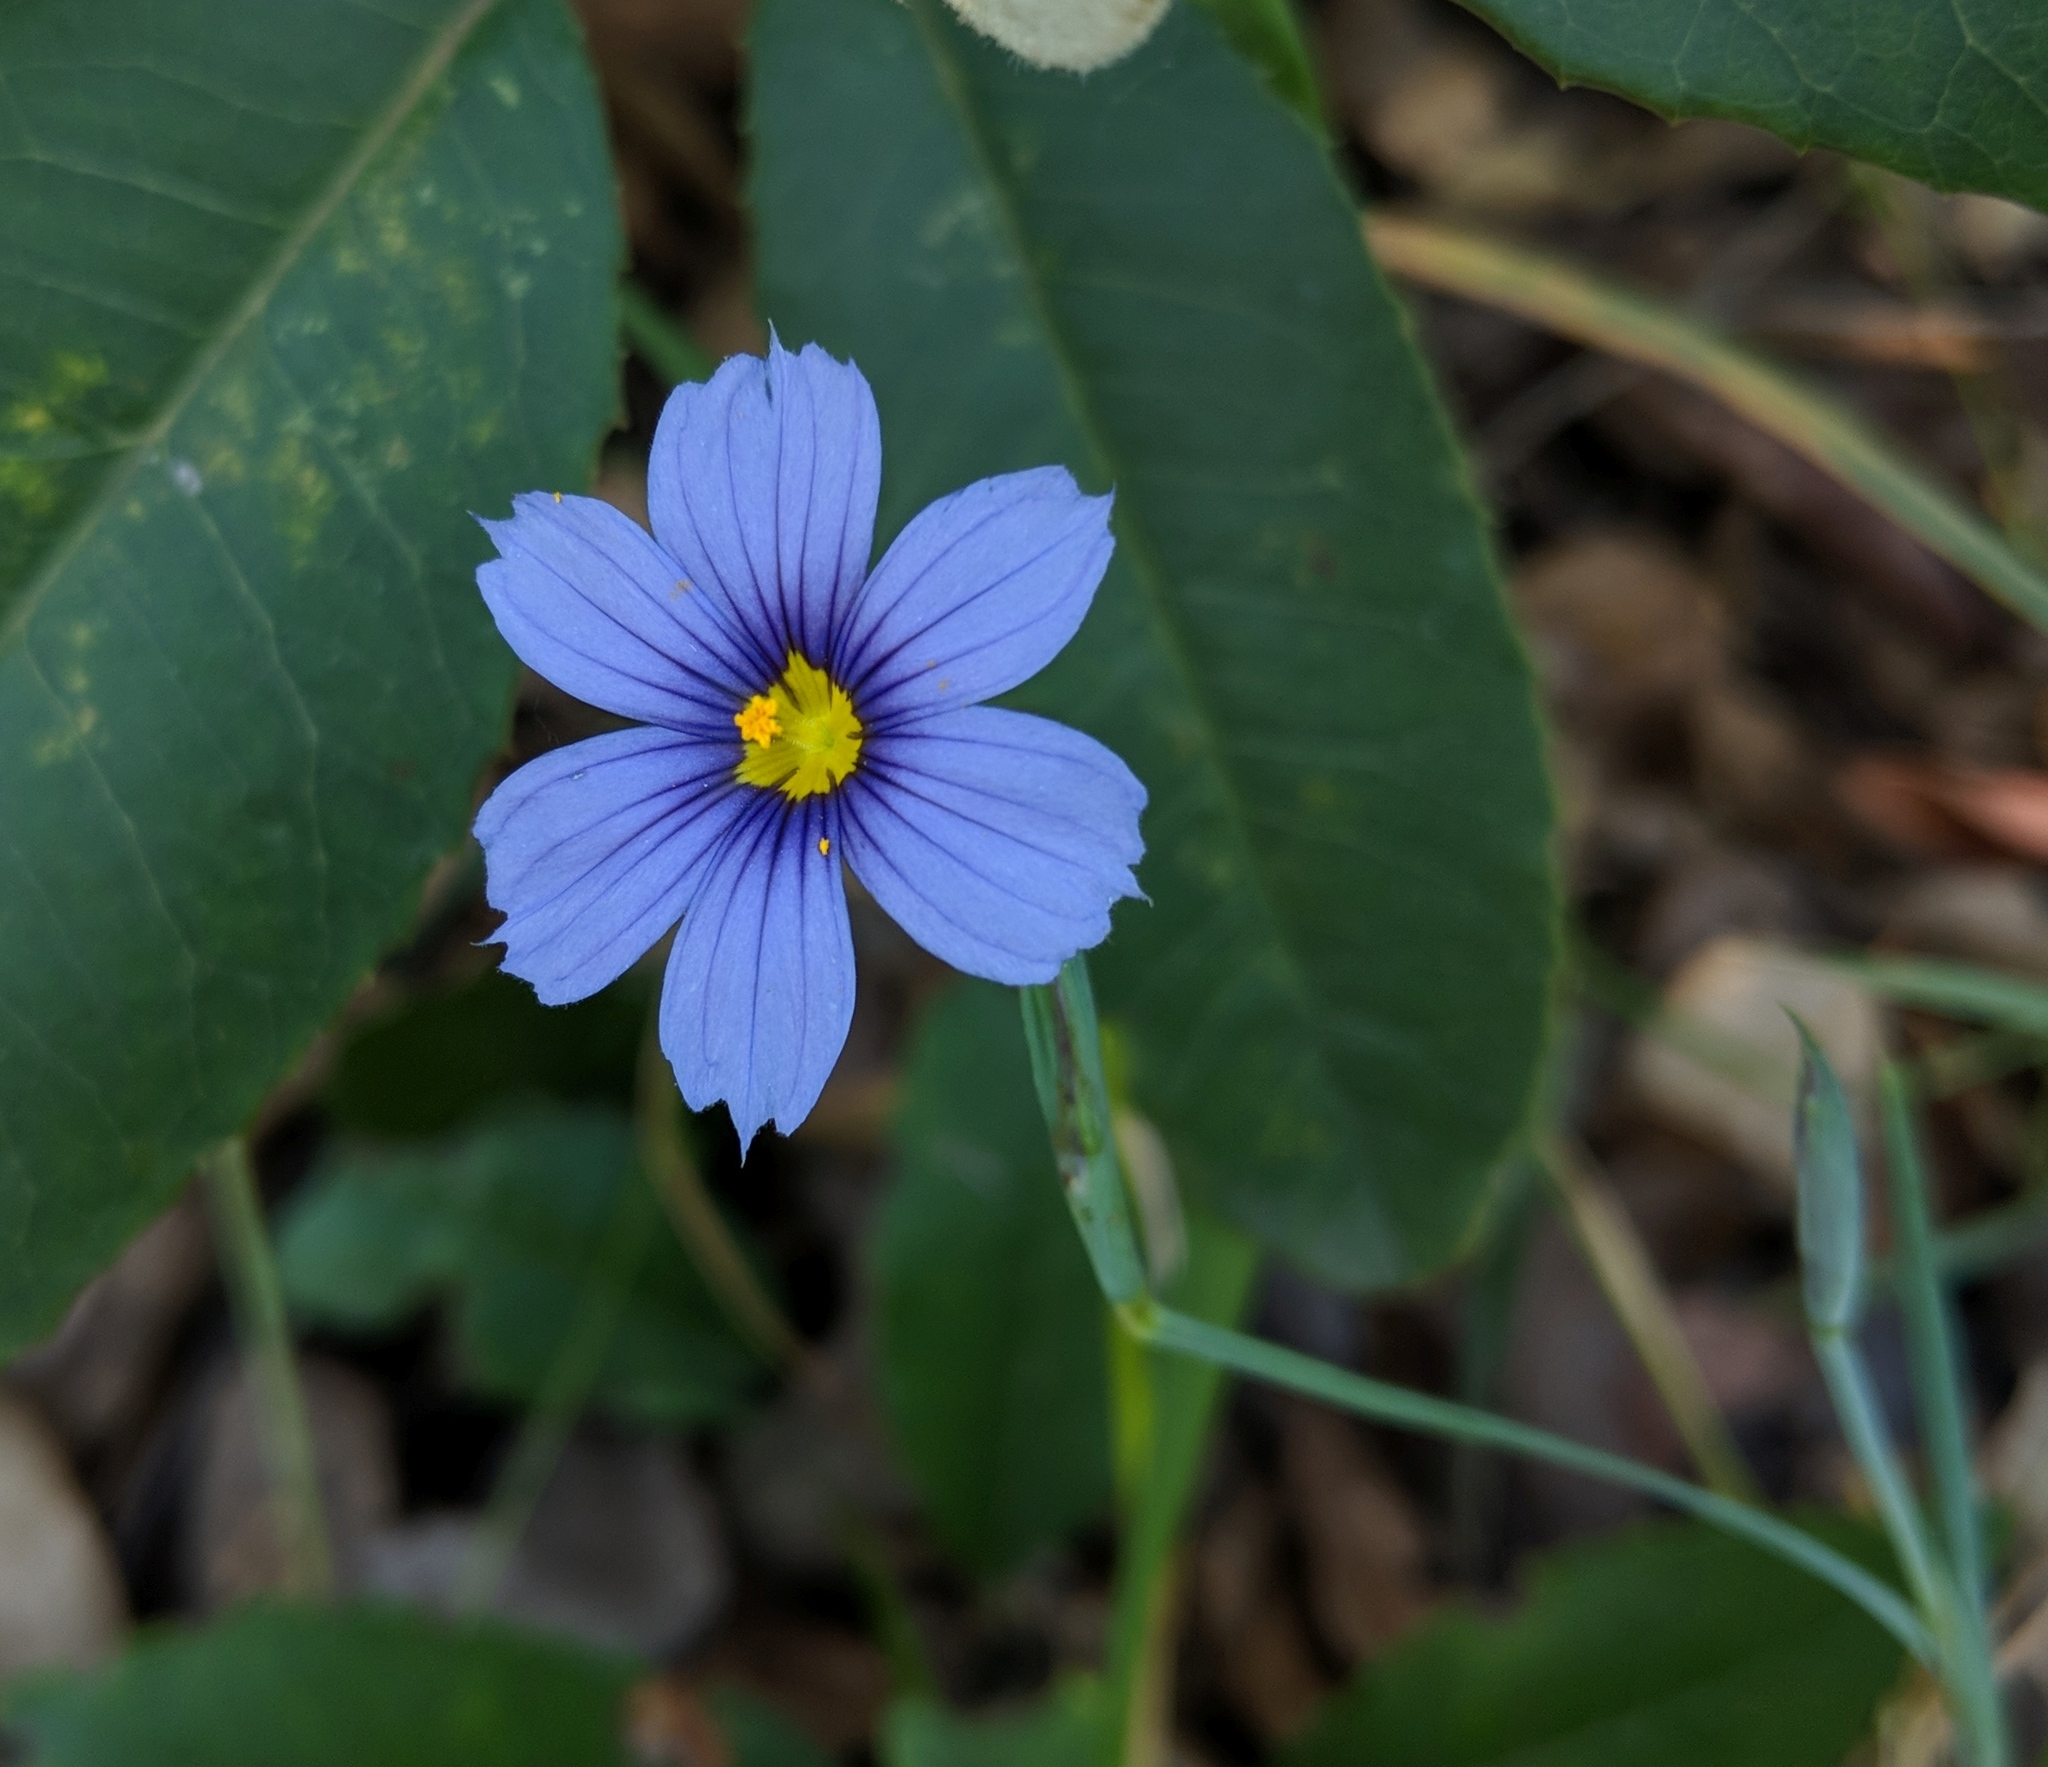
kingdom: Plantae
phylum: Tracheophyta
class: Liliopsida
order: Asparagales
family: Iridaceae
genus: Sisyrinchium
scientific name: Sisyrinchium bellum
